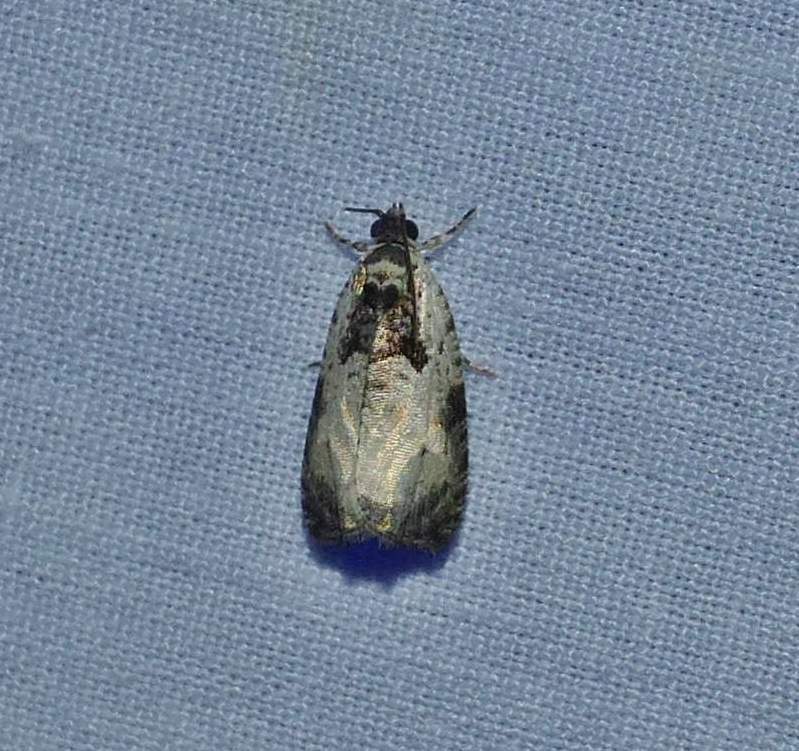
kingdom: Animalia
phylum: Arthropoda
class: Insecta
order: Lepidoptera
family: Tortricidae
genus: Olethreutes
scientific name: Olethreutes malana
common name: Malana leafroller moth
